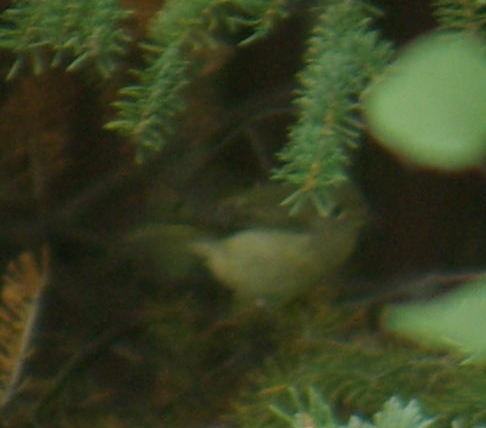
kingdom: Animalia
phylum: Chordata
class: Aves
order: Passeriformes
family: Regulidae
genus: Regulus
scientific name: Regulus calendula
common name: Ruby-crowned kinglet
